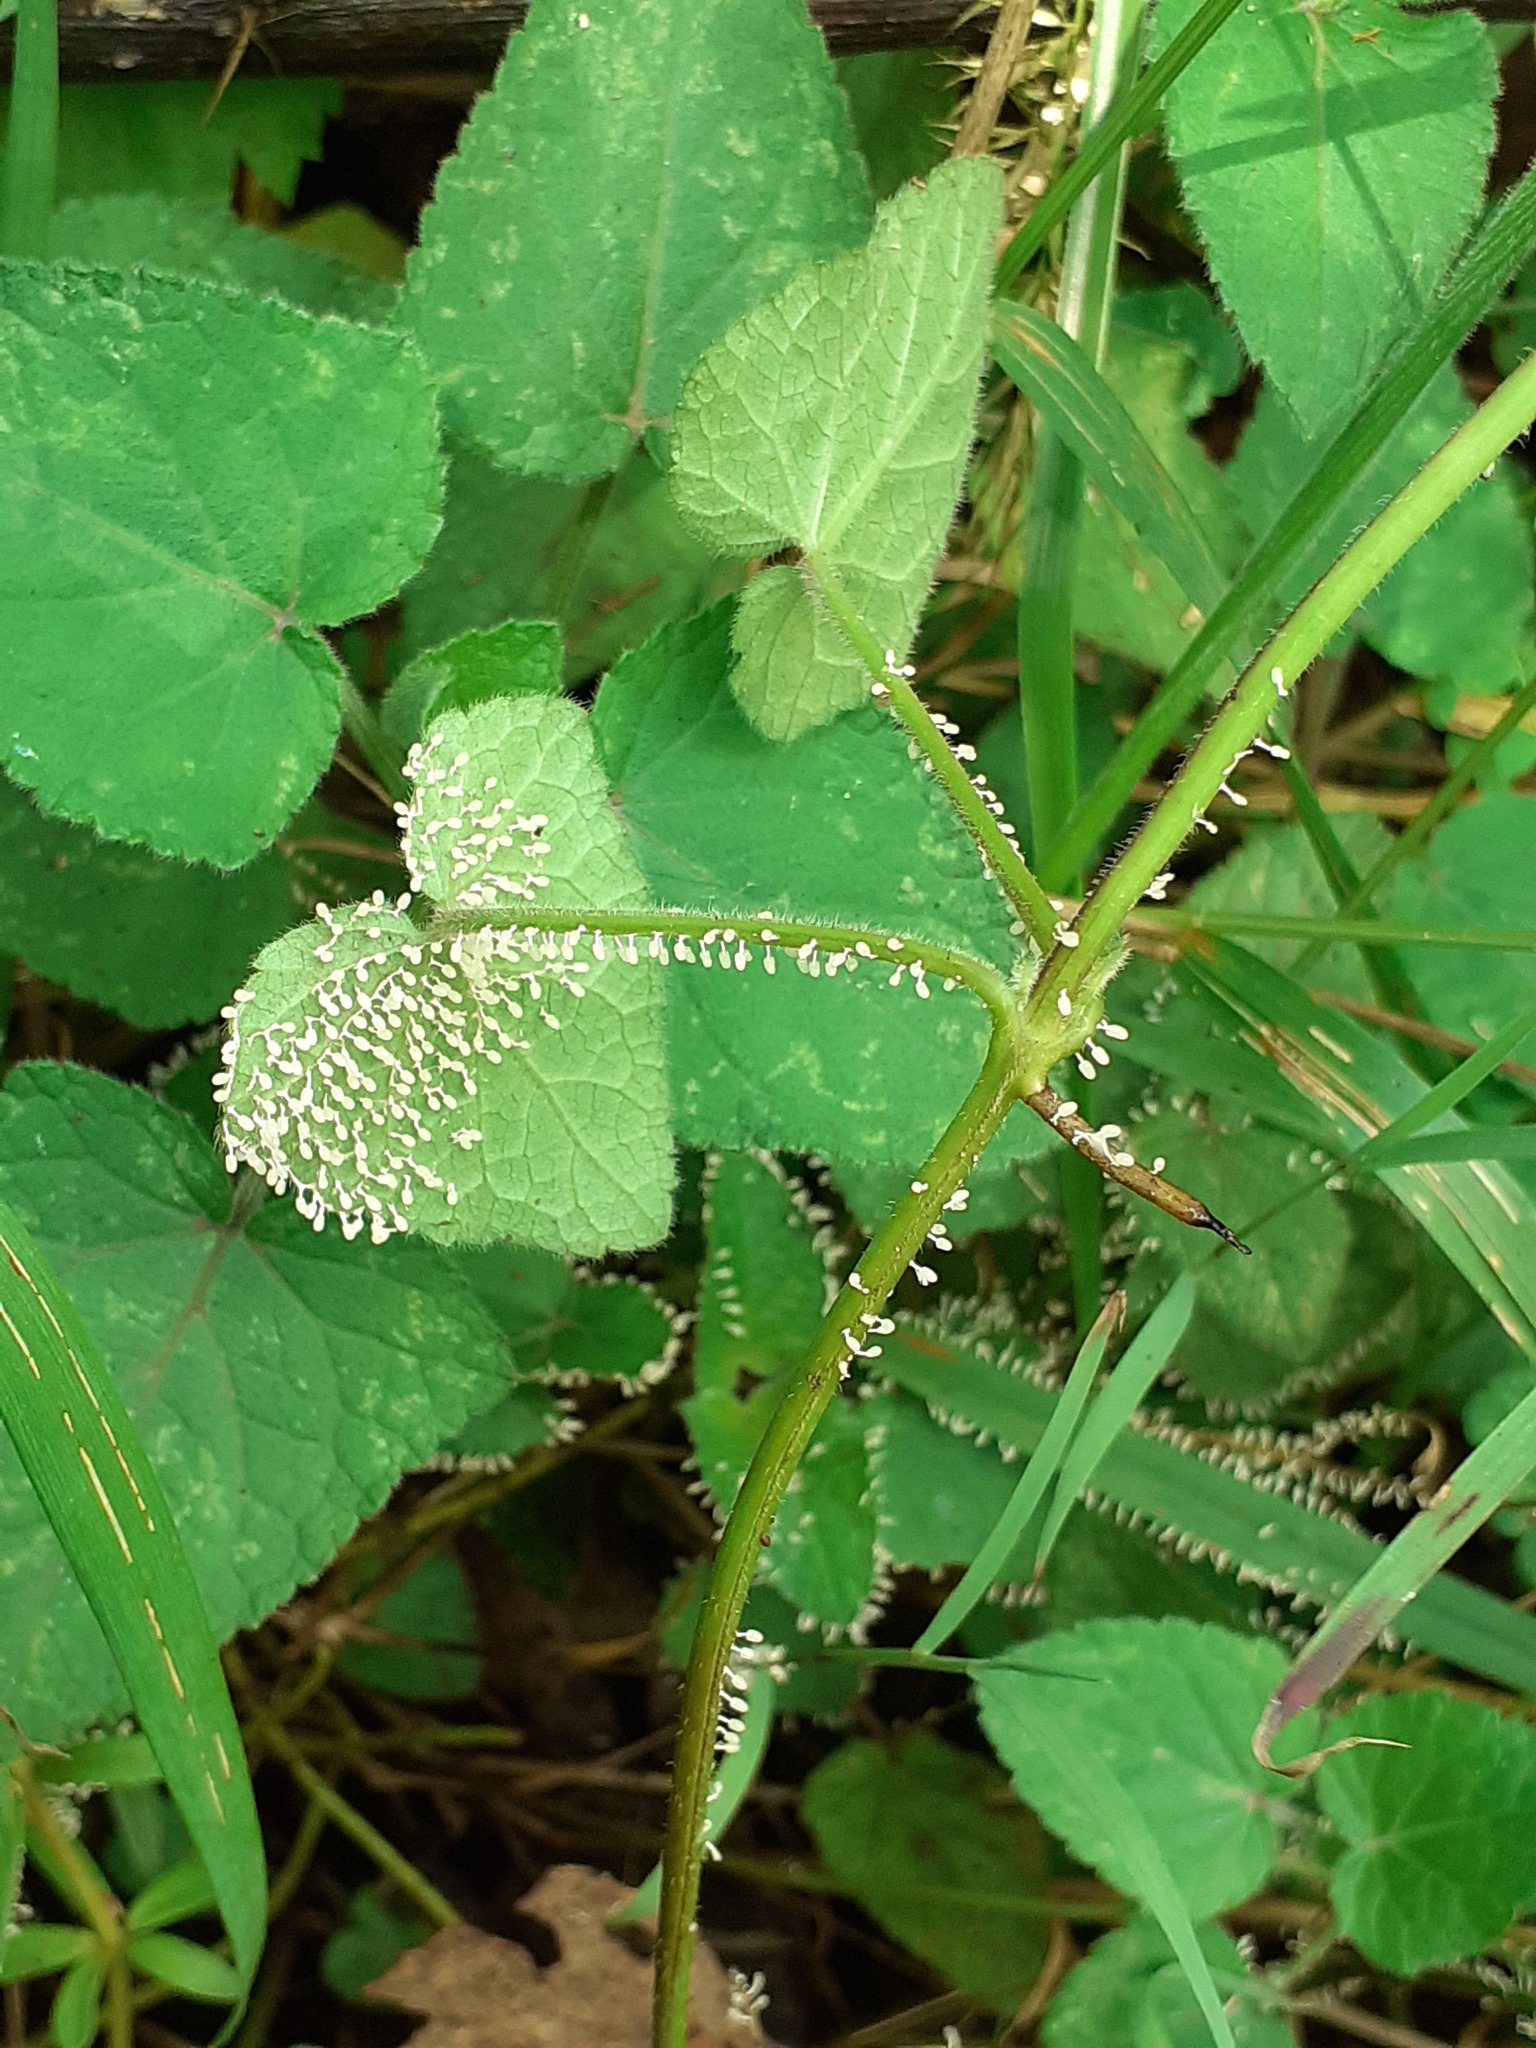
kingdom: Protozoa
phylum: Mycetozoa
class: Myxomycetes
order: Physarales
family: Didymiaceae
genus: Diachea
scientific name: Diachea leucopodia
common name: White-footed slime
